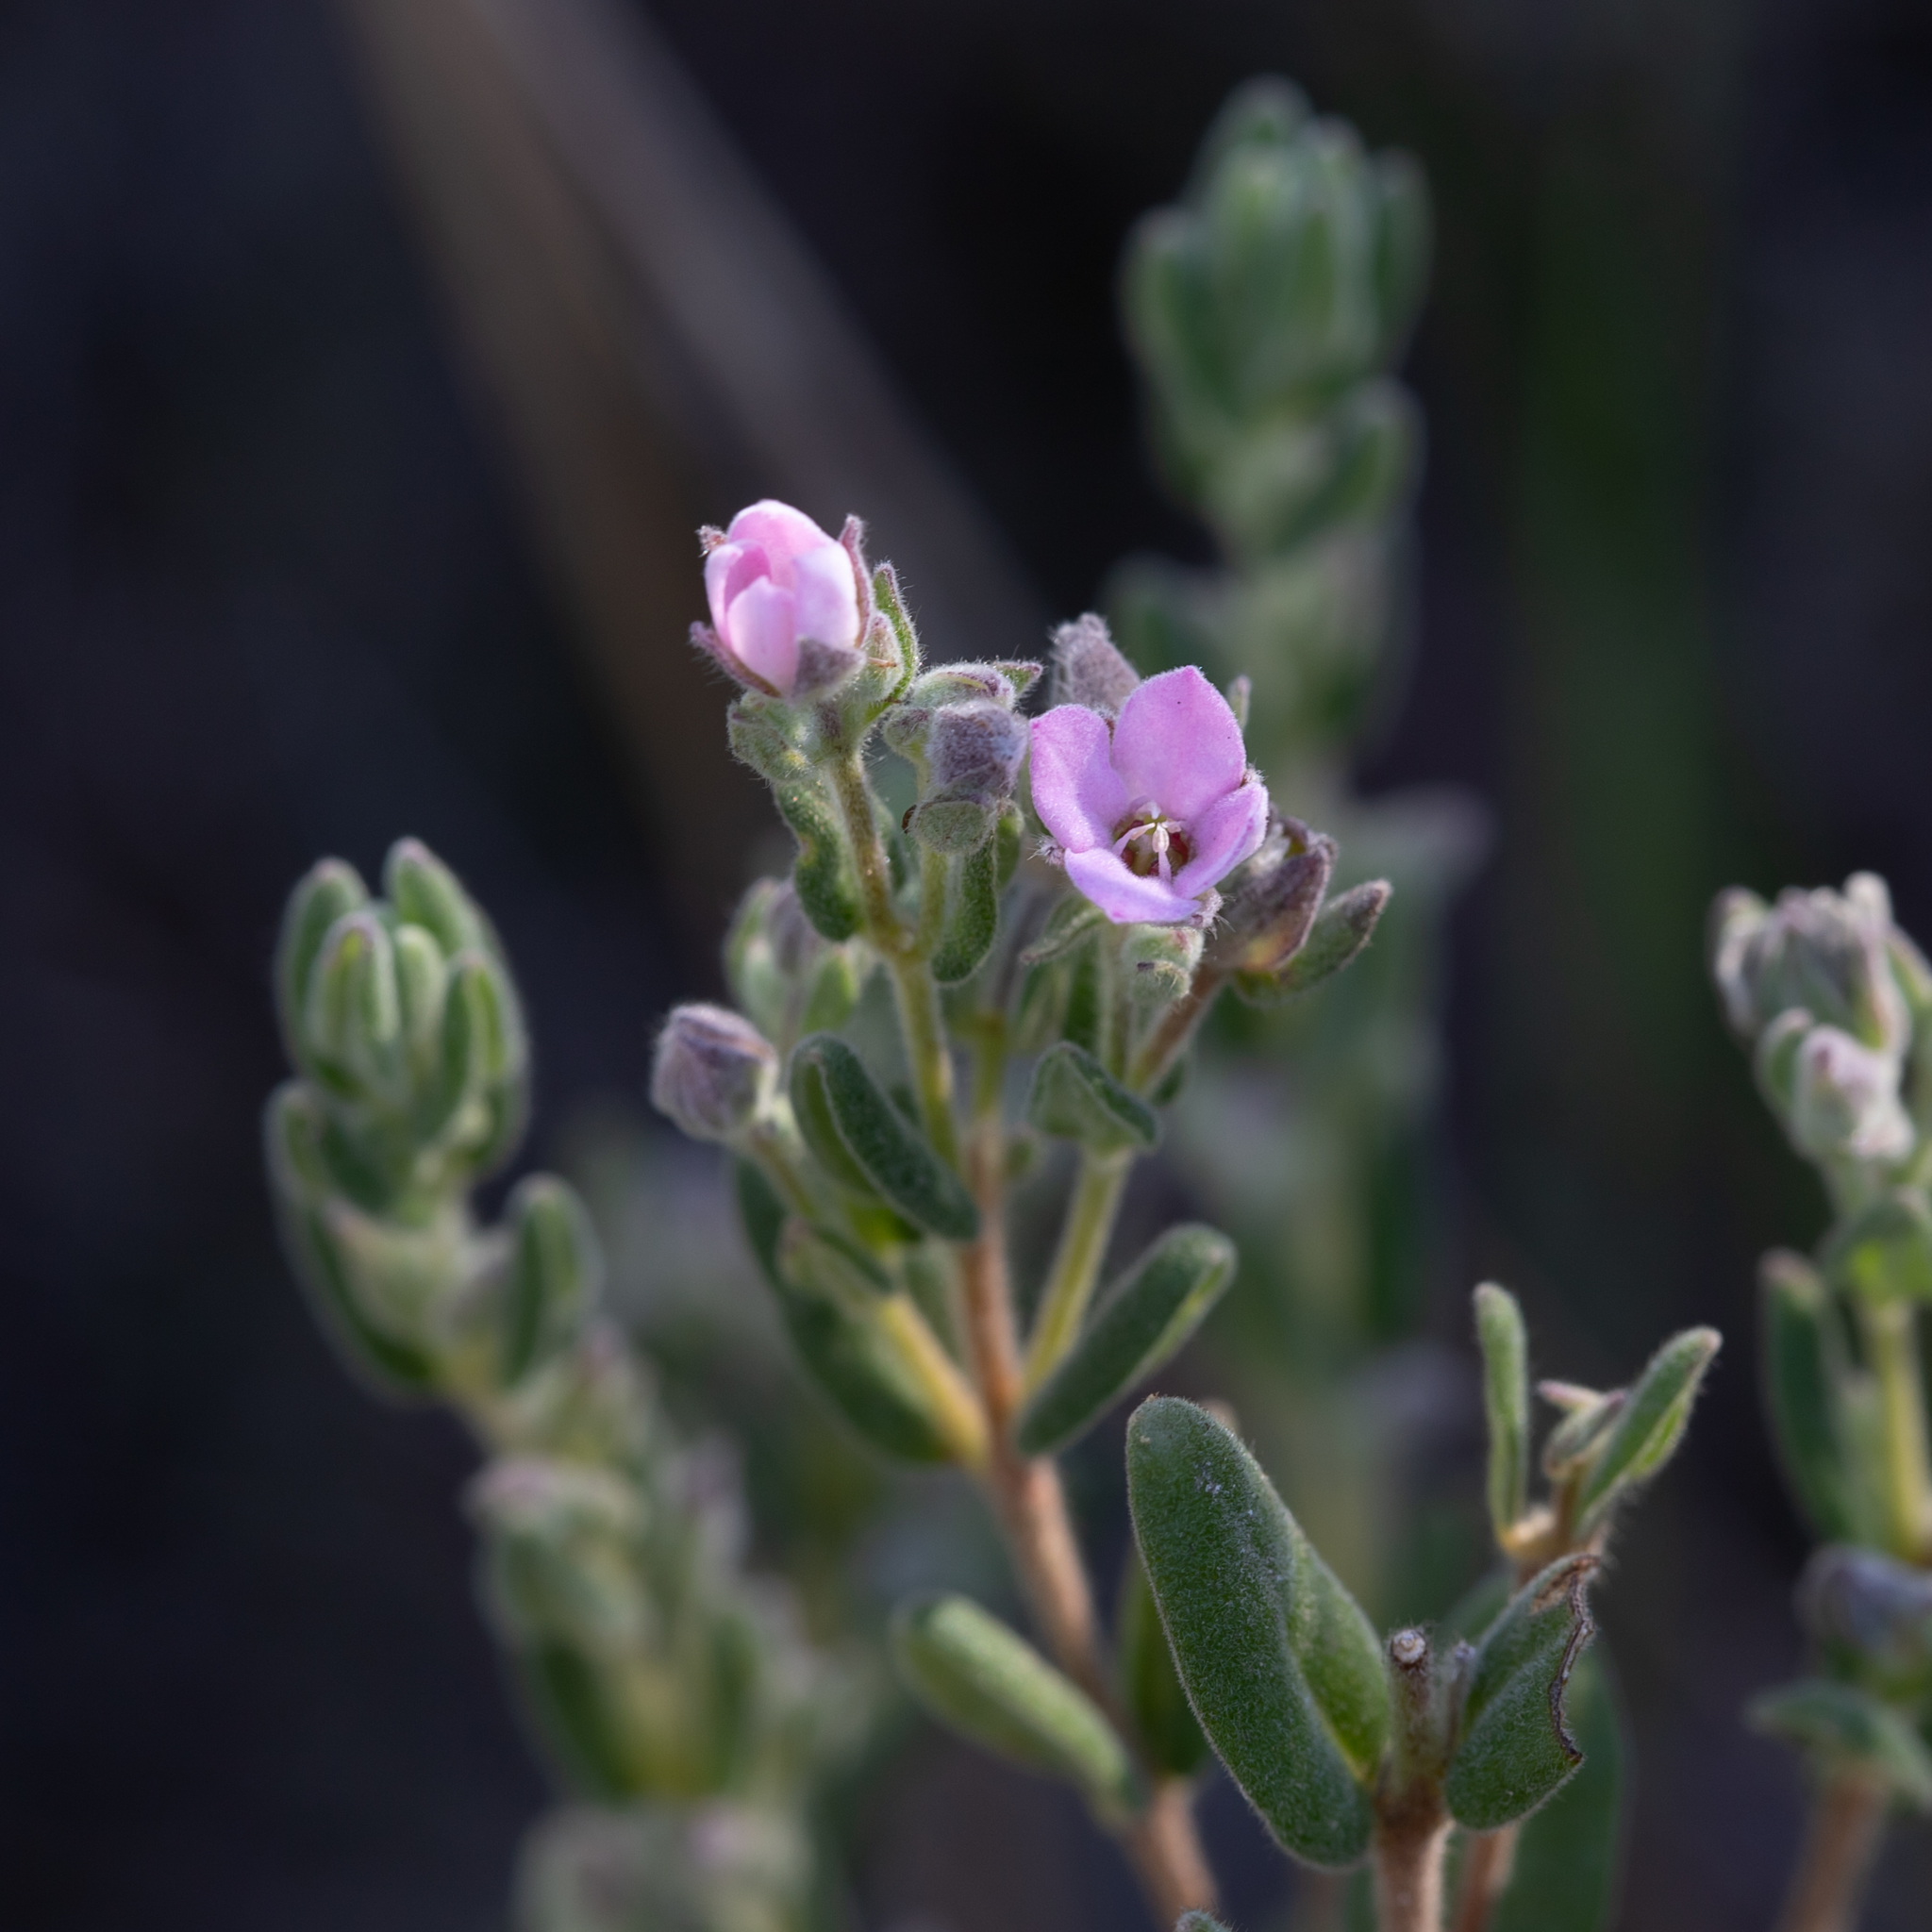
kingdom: Plantae
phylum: Tracheophyta
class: Magnoliopsida
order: Sapindales
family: Rutaceae
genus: Zieria
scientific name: Zieria veronicea
